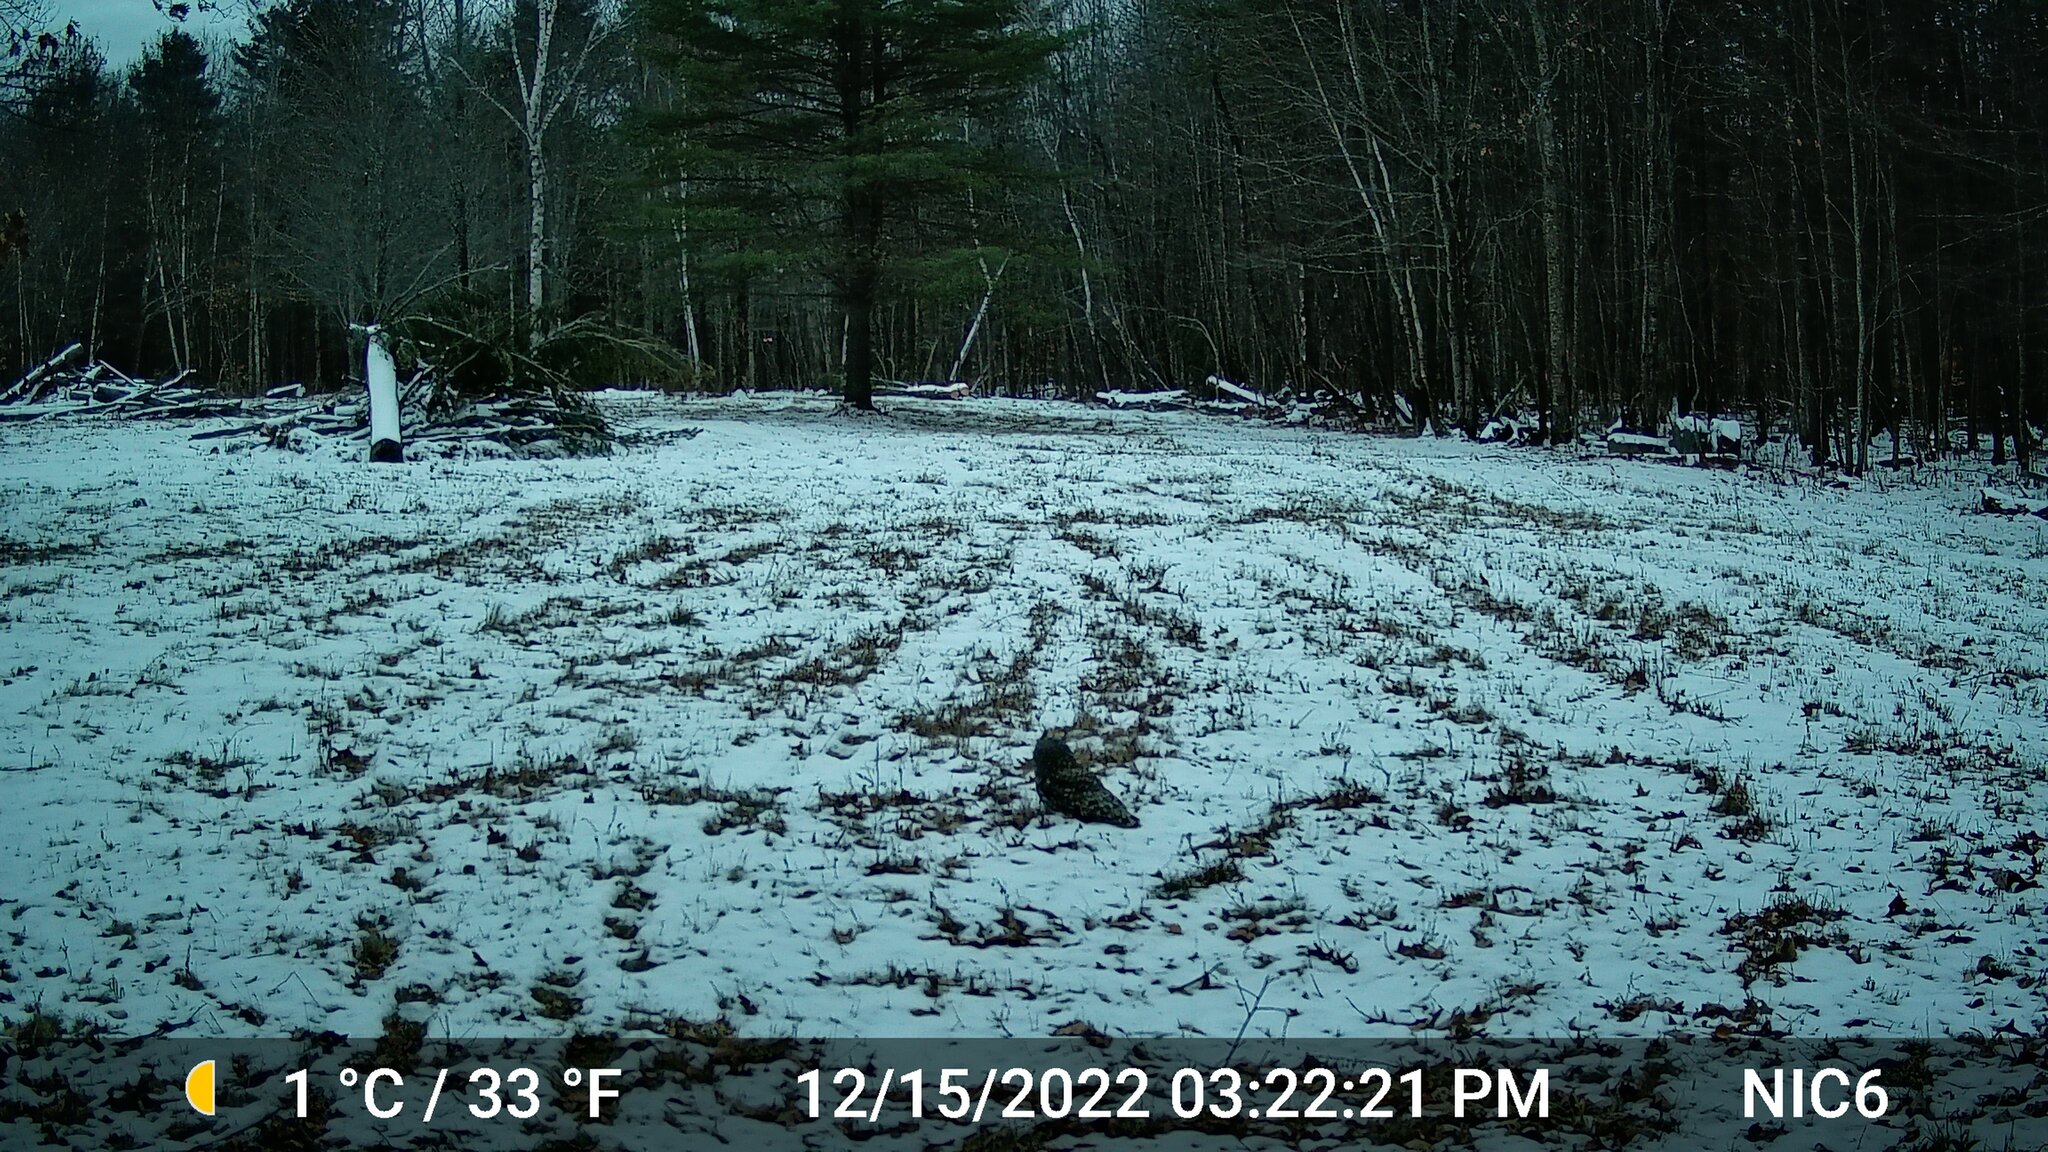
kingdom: Animalia
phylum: Chordata
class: Aves
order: Strigiformes
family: Strigidae
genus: Strix
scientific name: Strix varia
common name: Barred owl
